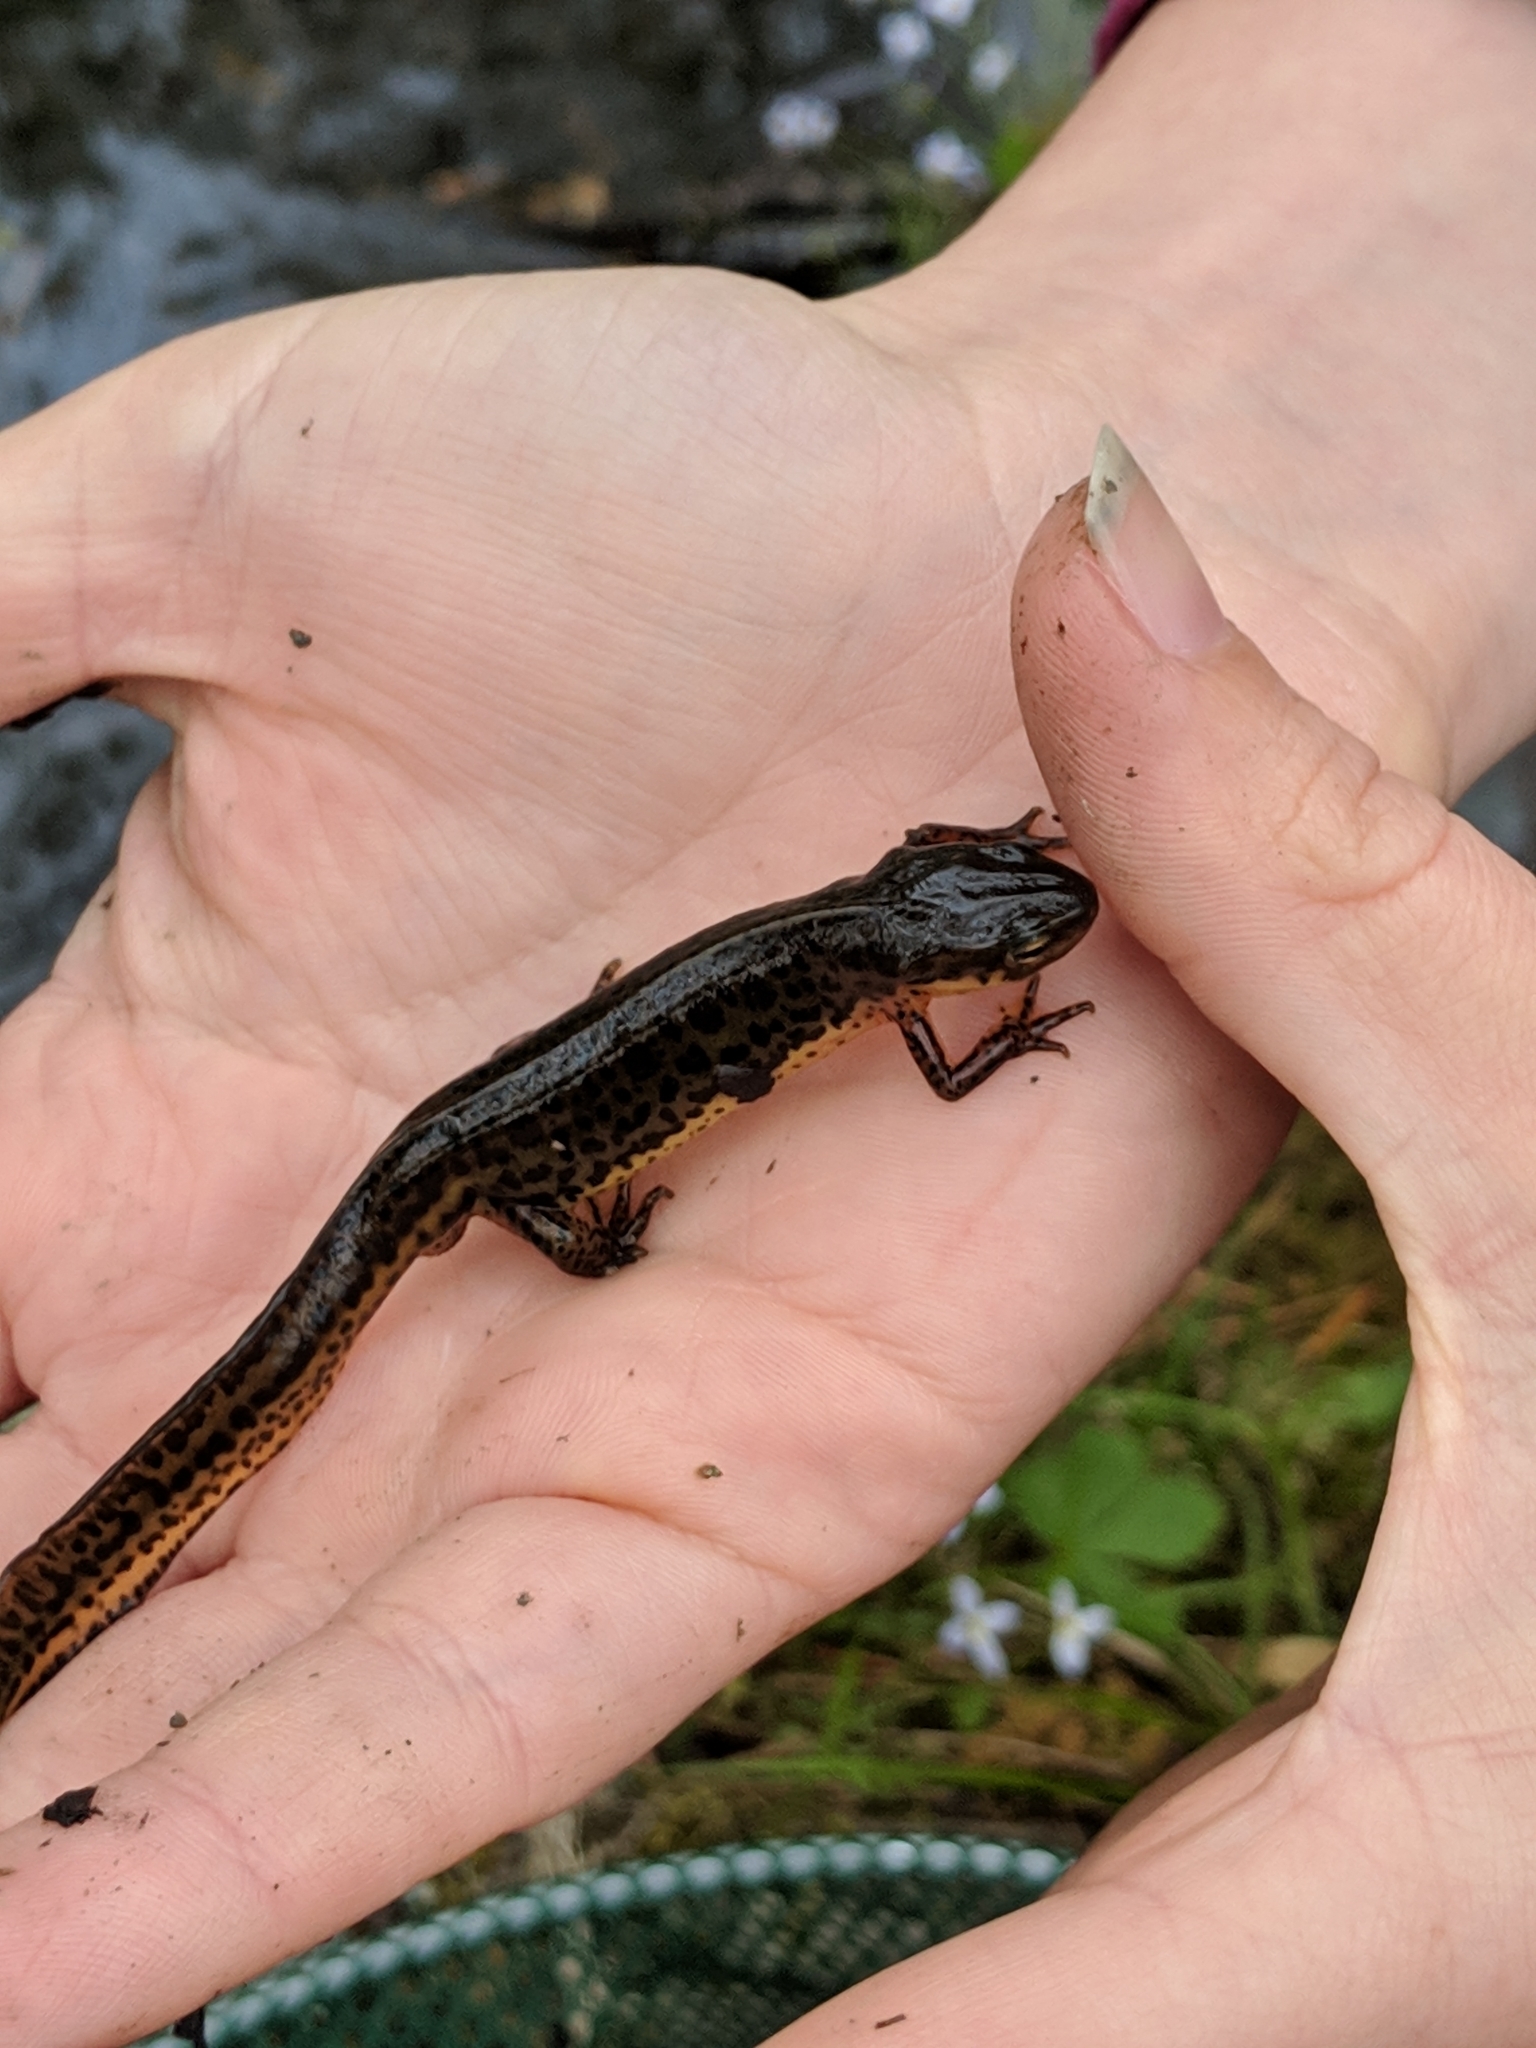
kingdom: Animalia
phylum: Chordata
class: Amphibia
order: Caudata
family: Salamandridae
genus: Notophthalmus
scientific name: Notophthalmus viridescens
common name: Eastern newt
